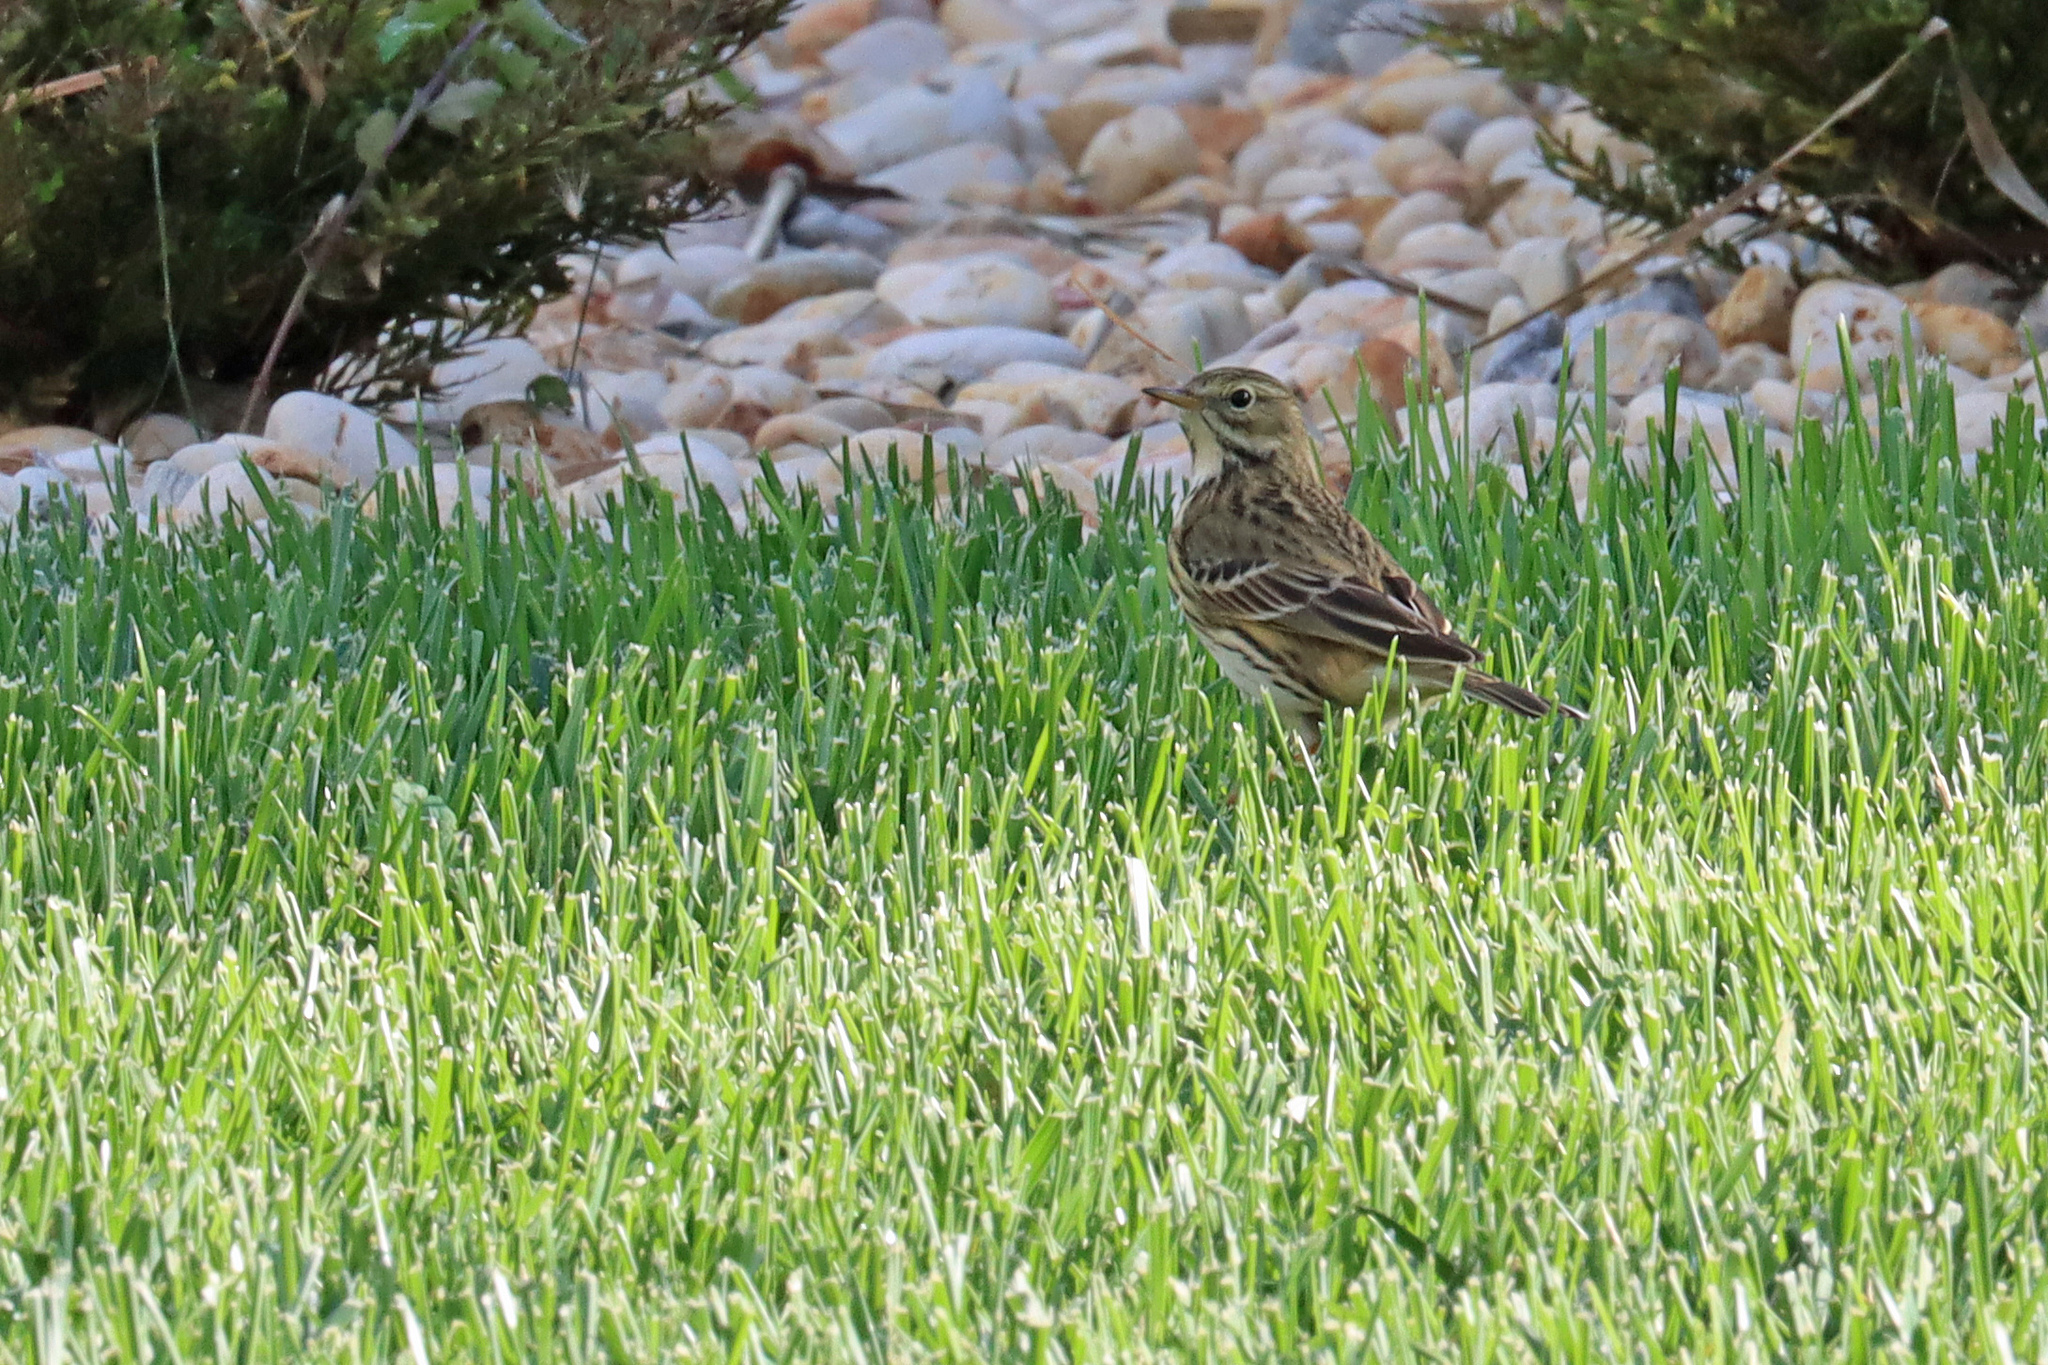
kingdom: Animalia
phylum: Chordata
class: Aves
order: Passeriformes
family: Motacillidae
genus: Anthus
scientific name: Anthus pratensis
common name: Meadow pipit
